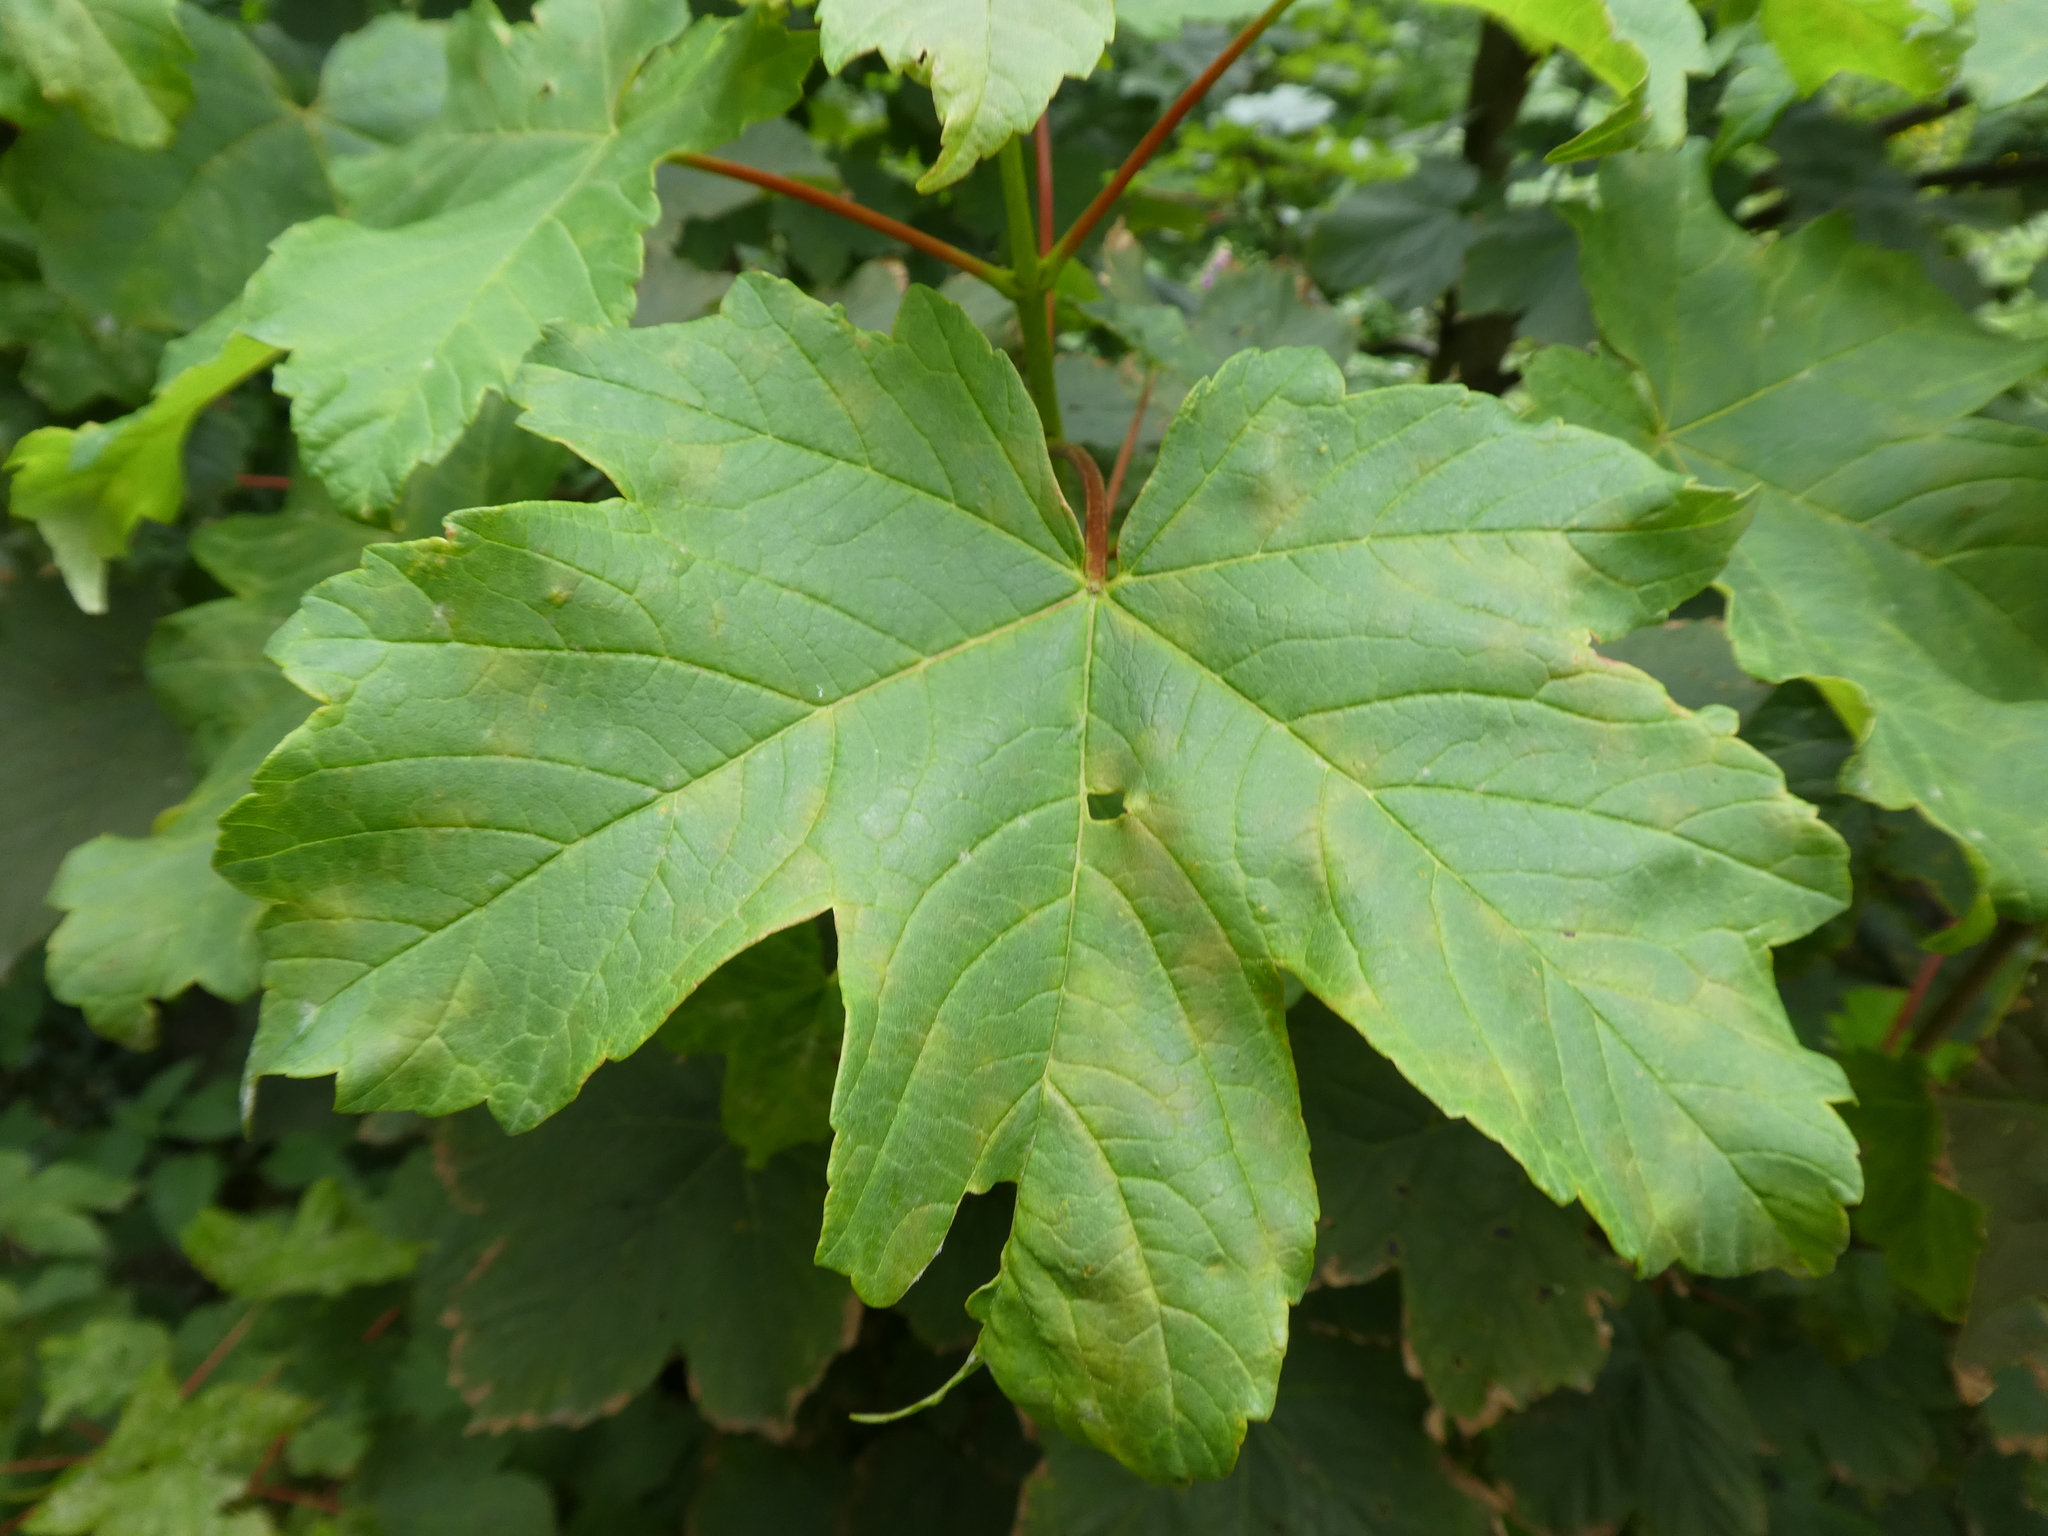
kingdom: Plantae
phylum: Tracheophyta
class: Magnoliopsida
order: Sapindales
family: Sapindaceae
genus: Acer
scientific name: Acer pseudoplatanus
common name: Sycamore
